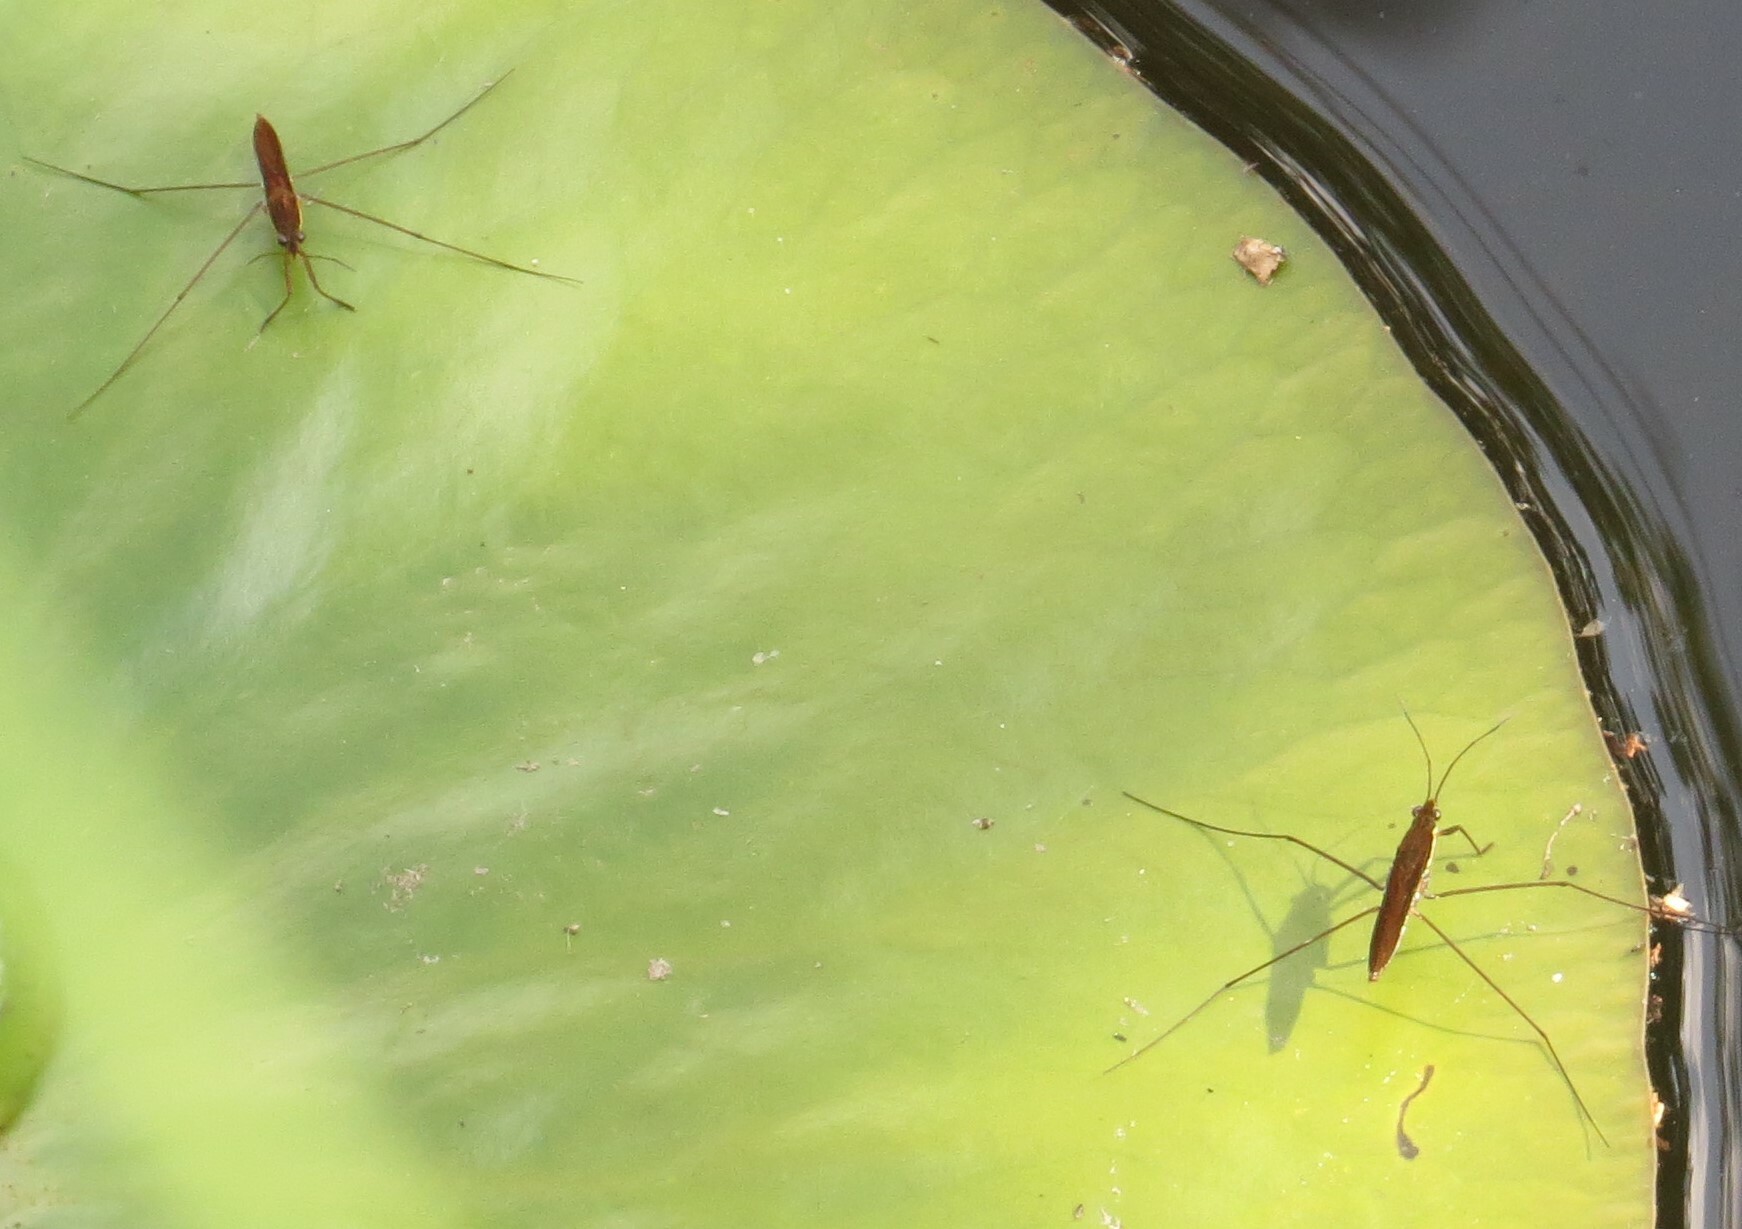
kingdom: Animalia
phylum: Arthropoda
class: Insecta
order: Hemiptera
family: Gerridae
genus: Limnoporus
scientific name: Limnoporus dissortis
